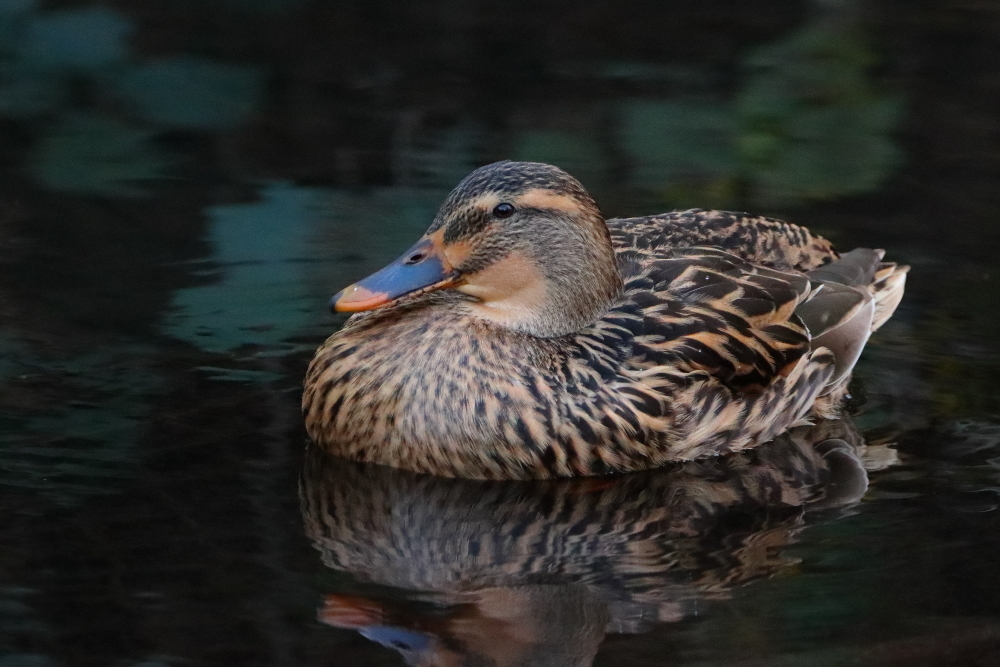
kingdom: Animalia
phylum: Chordata
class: Aves
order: Anseriformes
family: Anatidae
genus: Anas
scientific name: Anas platyrhynchos
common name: Mallard
